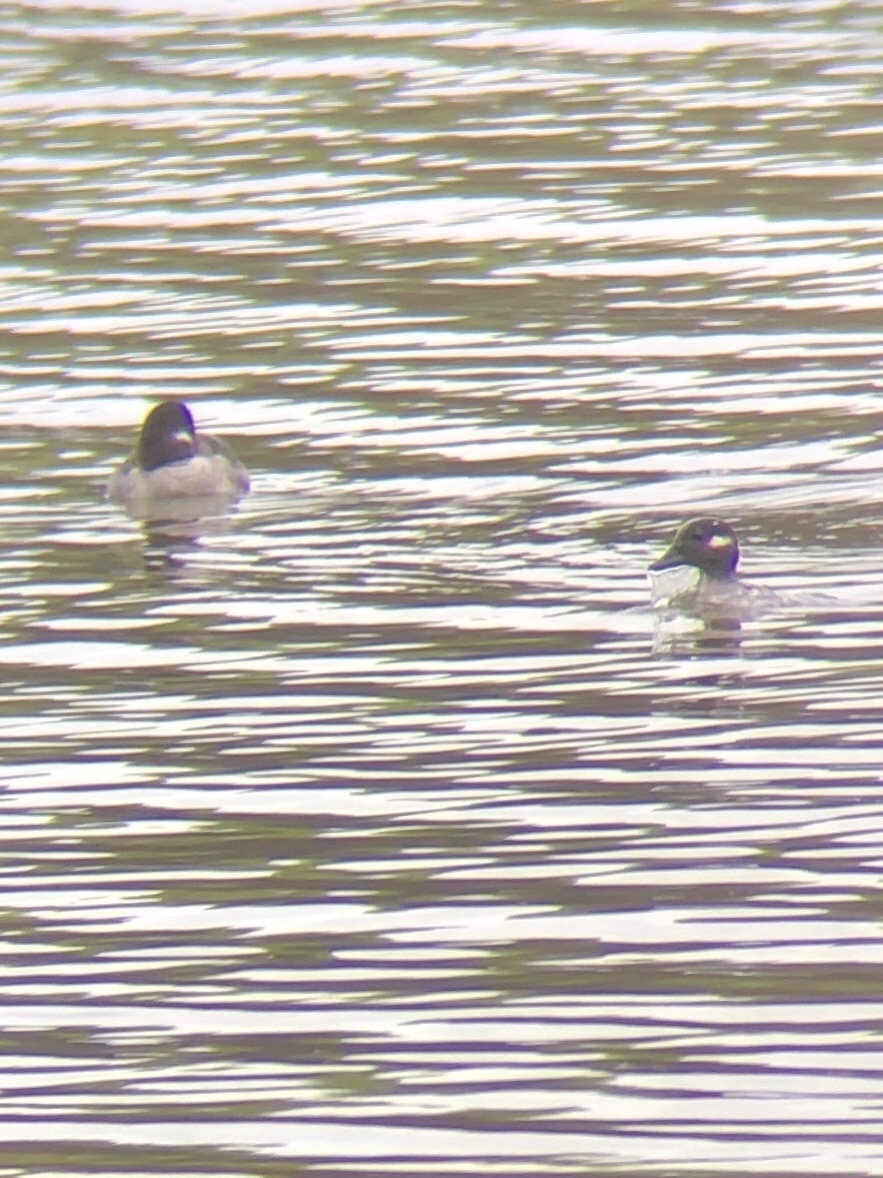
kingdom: Animalia
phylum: Chordata
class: Aves
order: Anseriformes
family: Anatidae
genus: Bucephala
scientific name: Bucephala albeola
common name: Bufflehead
